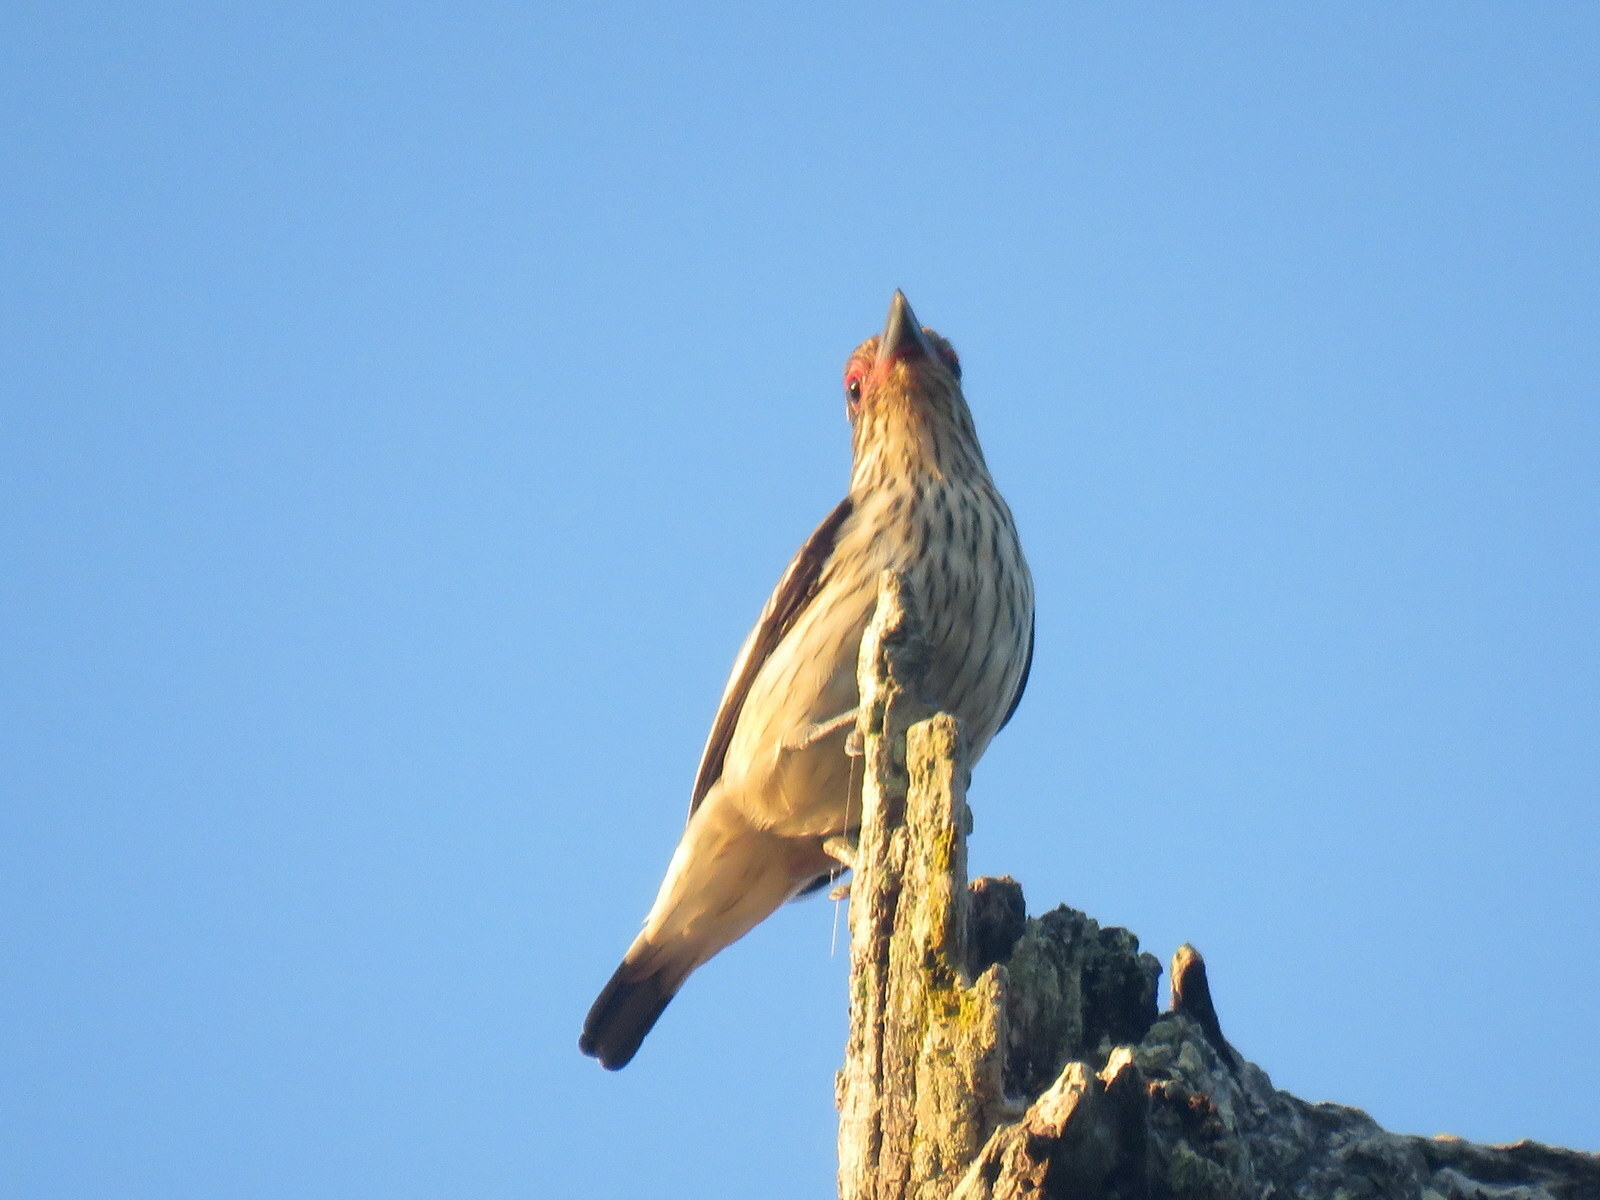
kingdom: Animalia
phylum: Chordata
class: Aves
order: Passeriformes
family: Cotingidae
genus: Tityra
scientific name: Tityra cayana
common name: Black-tailed tityra
